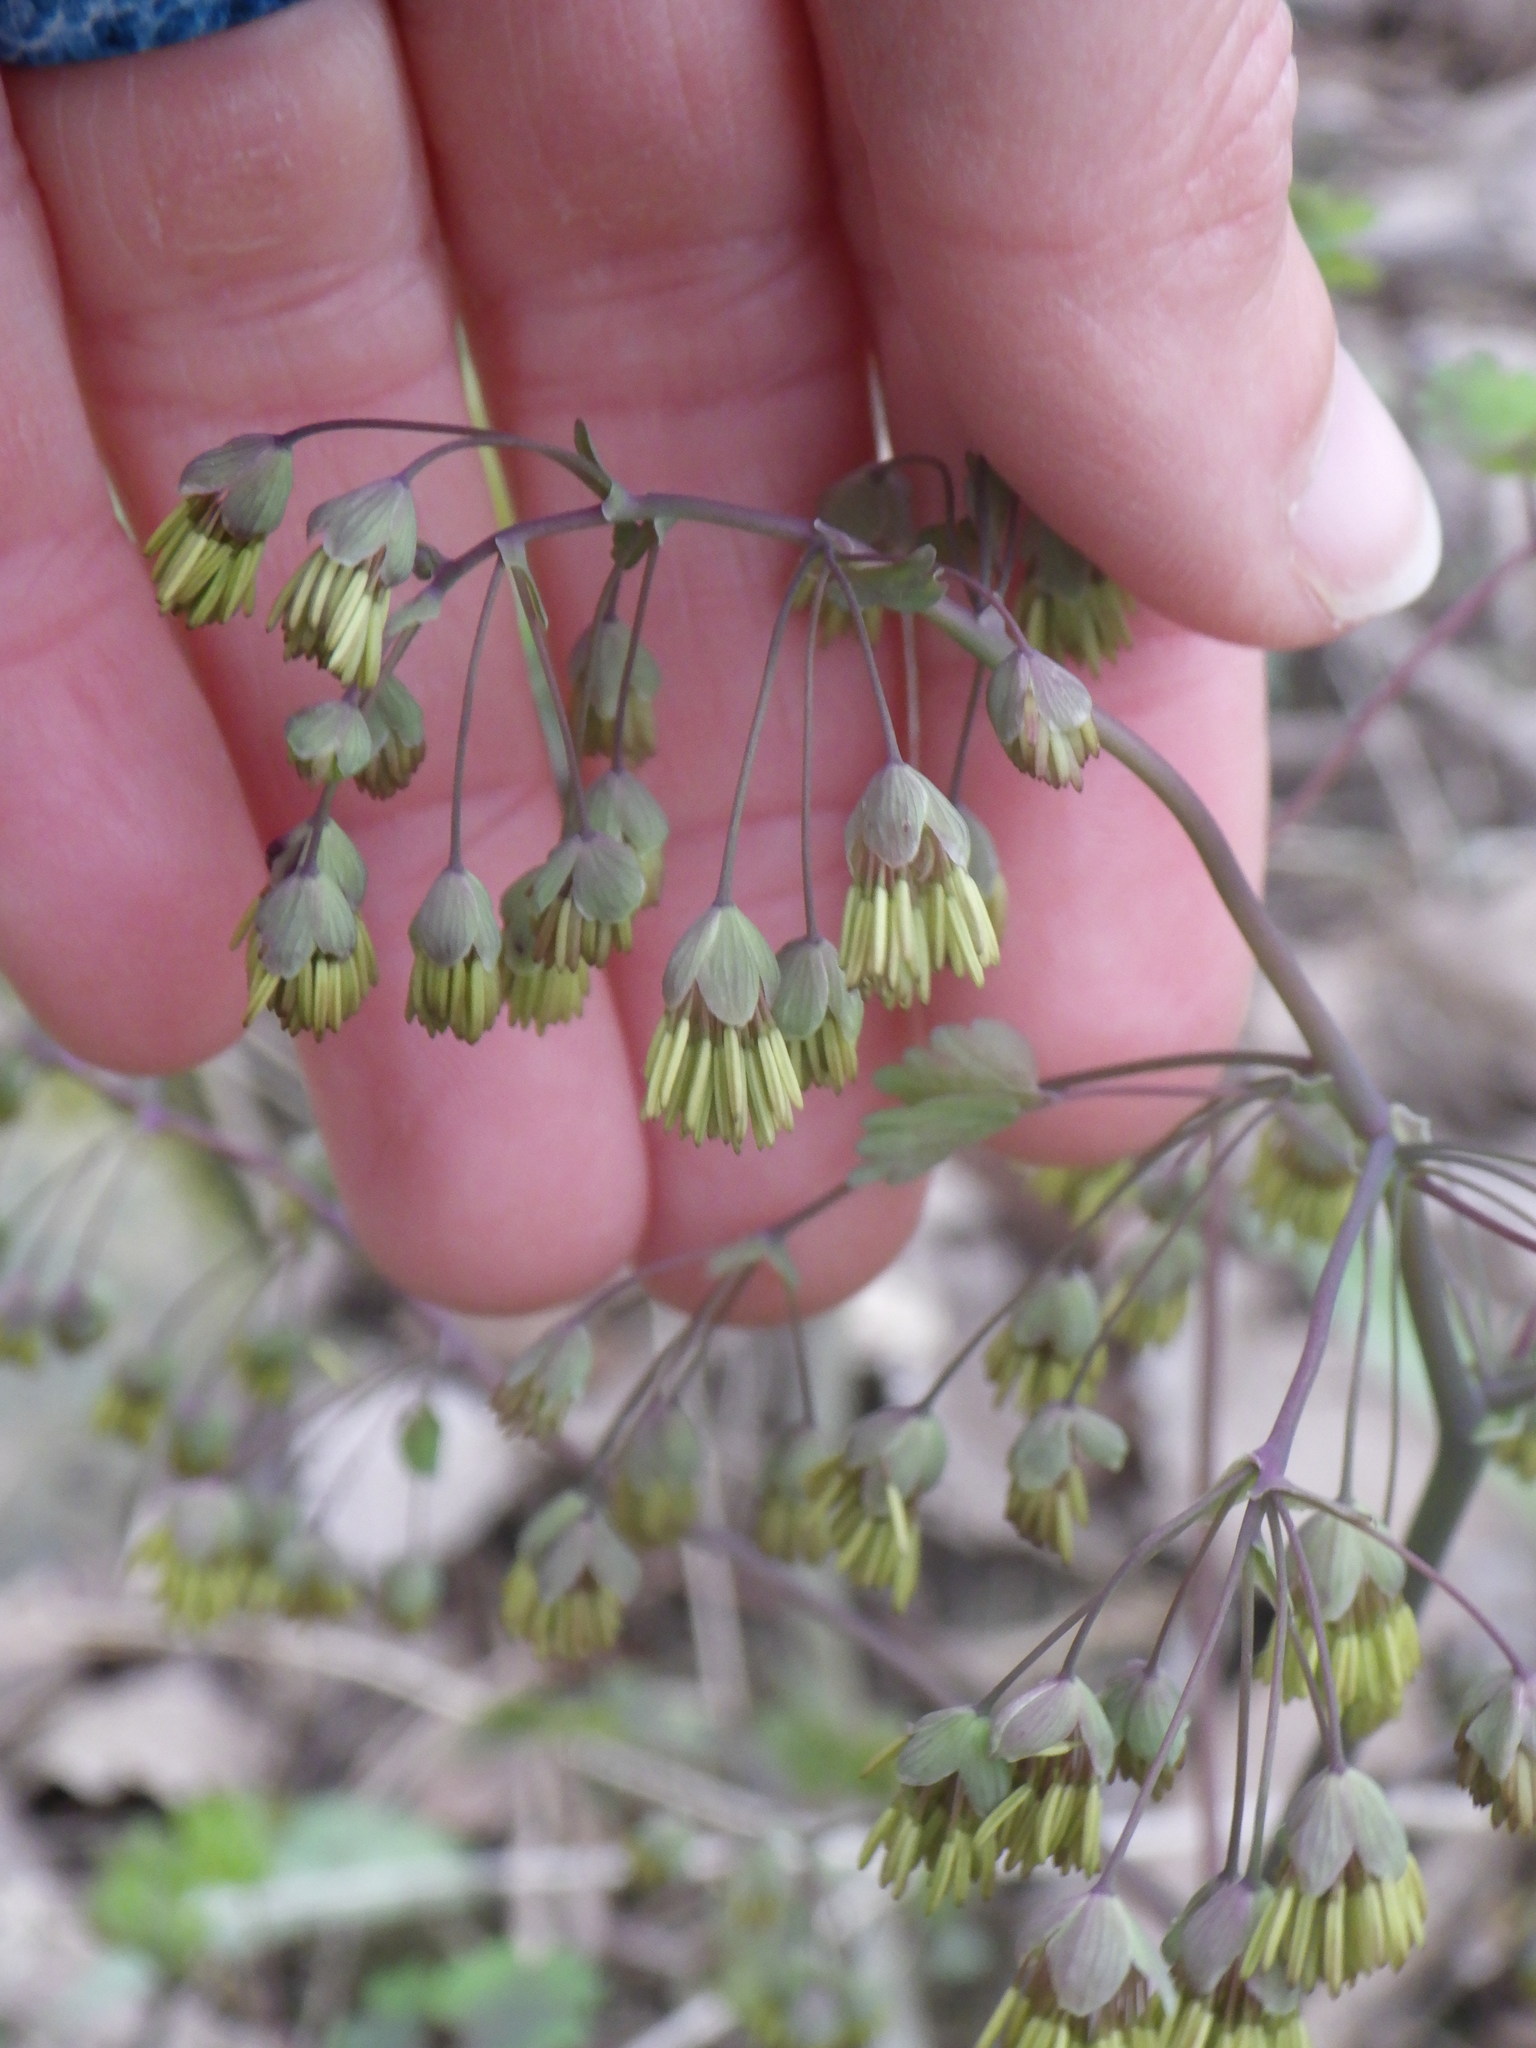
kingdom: Plantae
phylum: Tracheophyta
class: Magnoliopsida
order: Ranunculales
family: Ranunculaceae
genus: Thalictrum
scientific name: Thalictrum dioicum
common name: Early meadow-rue
